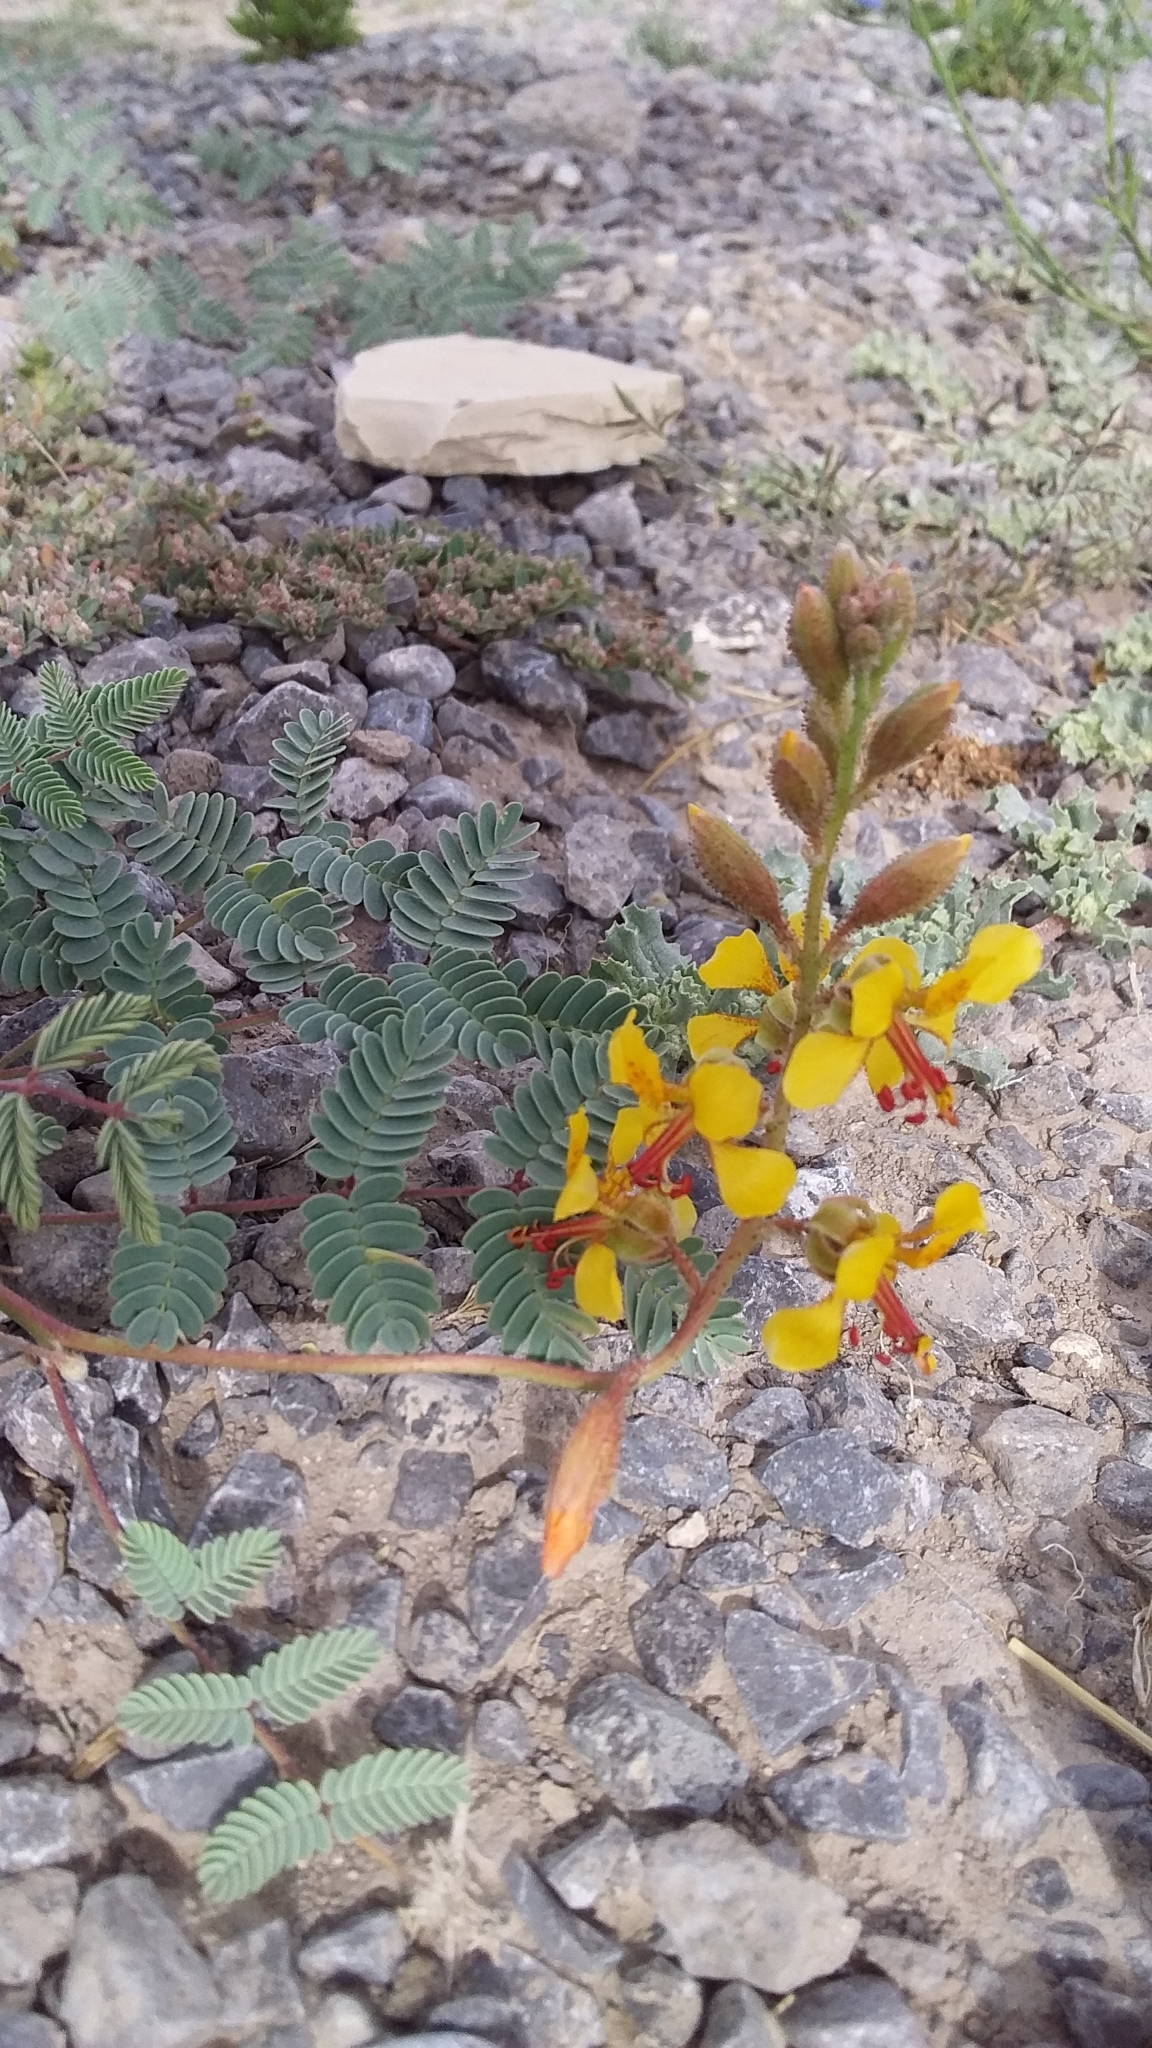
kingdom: Plantae
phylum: Tracheophyta
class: Magnoliopsida
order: Fabales
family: Fabaceae
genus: Hoffmannseggia
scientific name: Hoffmannseggia glauca
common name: Pignut
